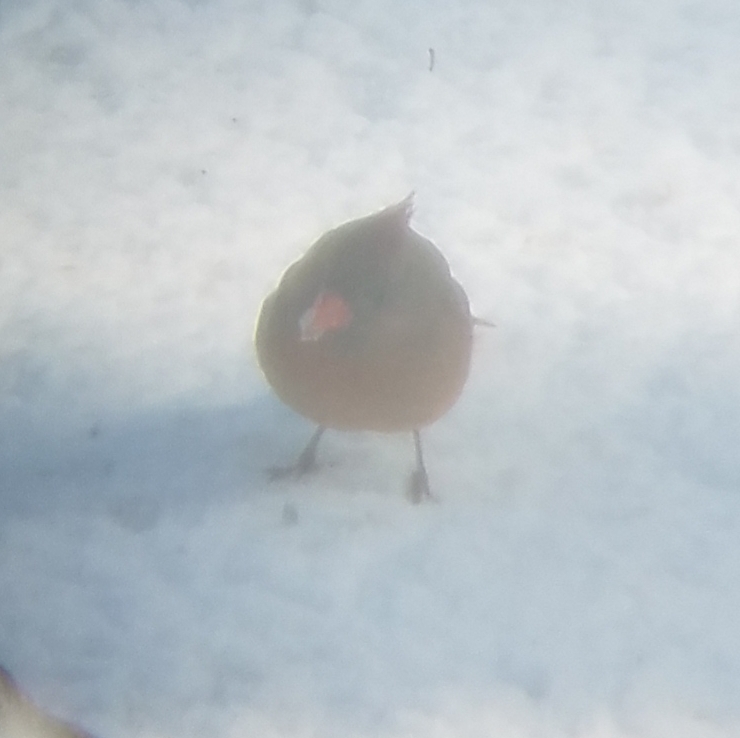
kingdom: Animalia
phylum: Chordata
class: Aves
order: Passeriformes
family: Cardinalidae
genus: Cardinalis
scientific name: Cardinalis cardinalis
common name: Northern cardinal
